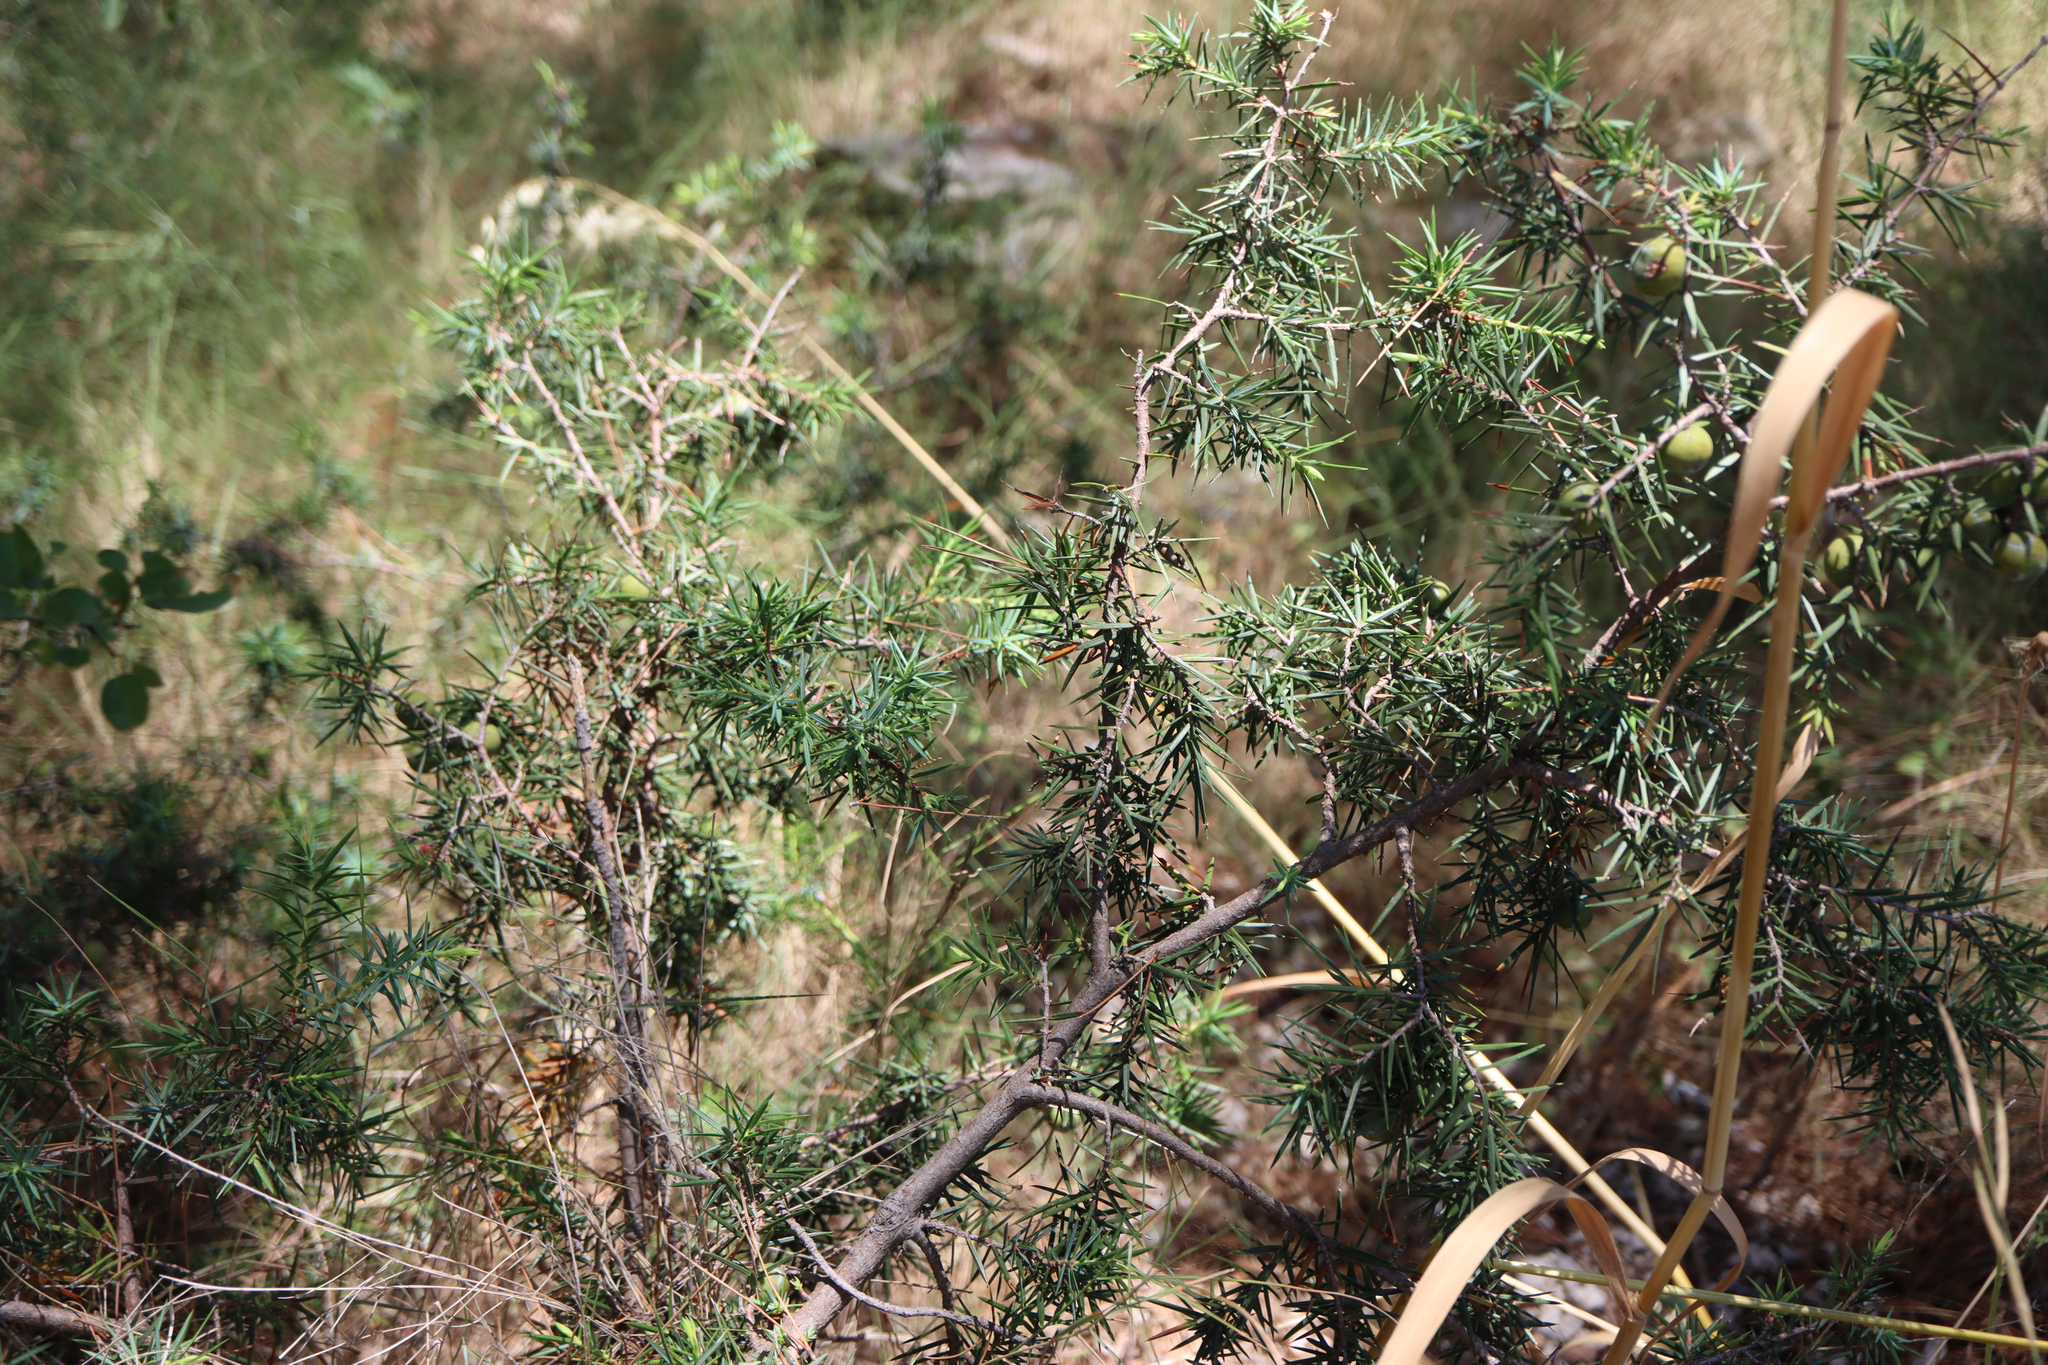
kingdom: Plantae
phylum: Tracheophyta
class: Pinopsida
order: Pinales
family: Cupressaceae
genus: Juniperus
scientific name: Juniperus oxycedrus
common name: Prickly juniper
